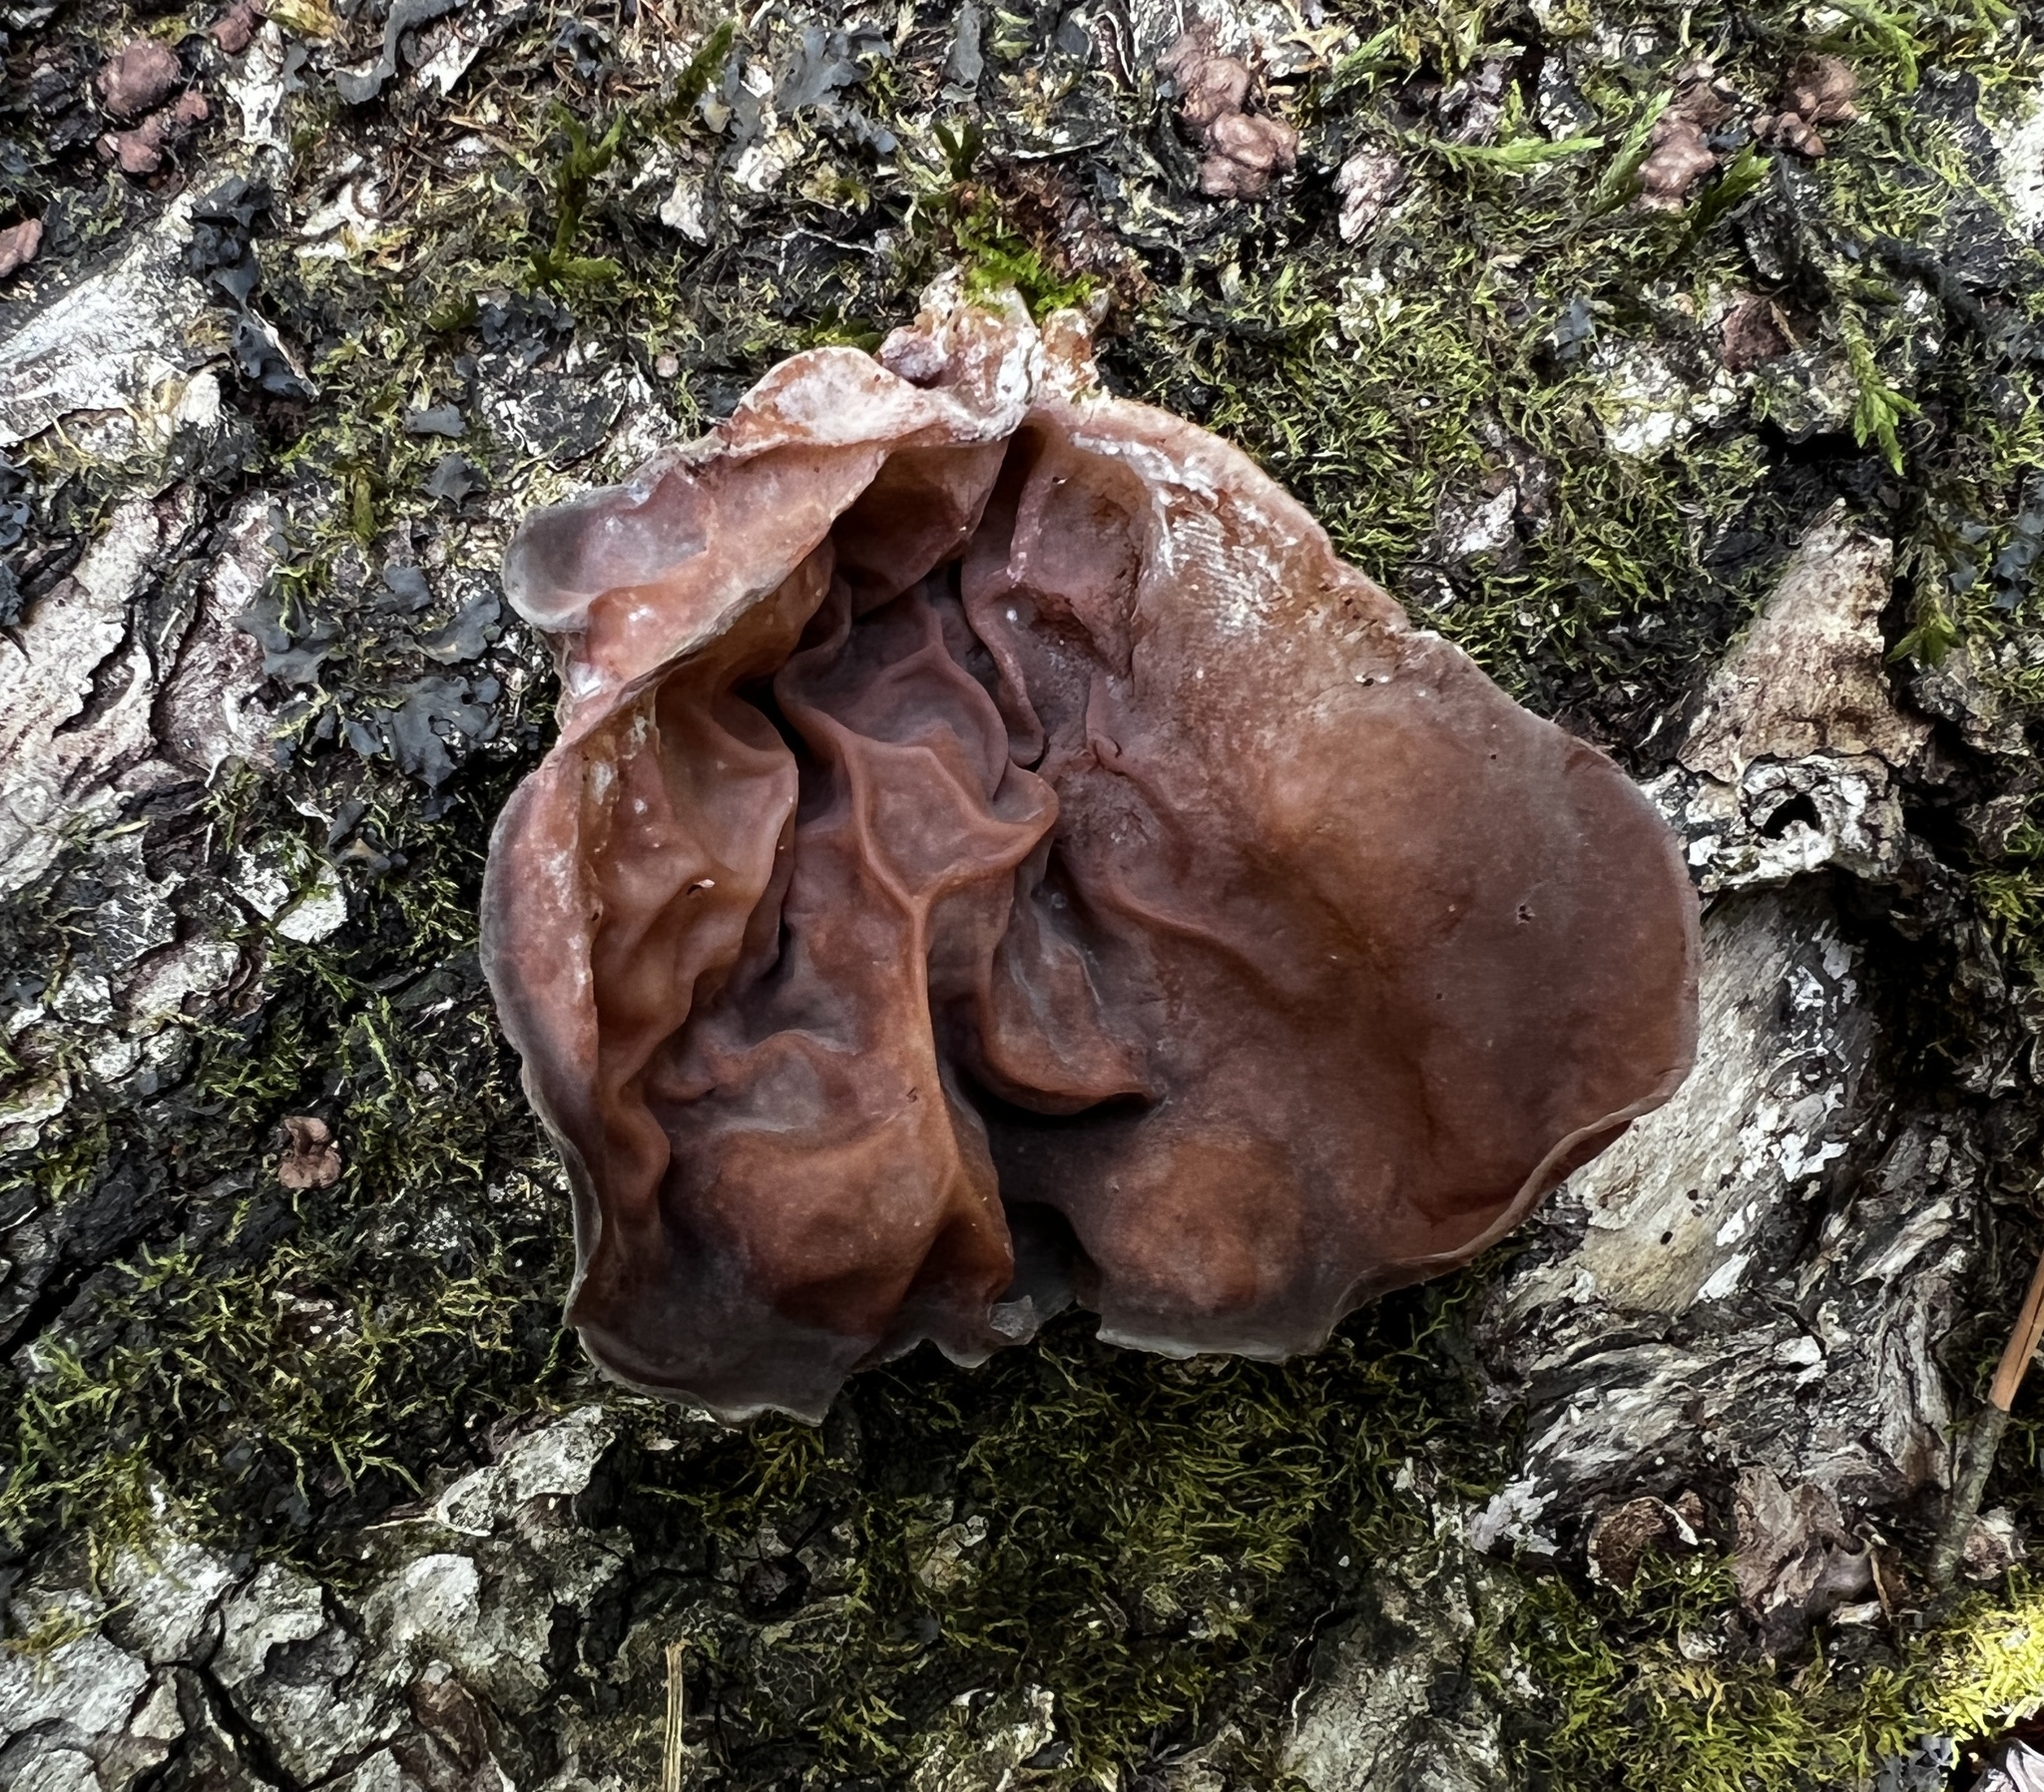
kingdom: Fungi
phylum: Basidiomycota
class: Agaricomycetes
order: Auriculariales
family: Auriculariaceae
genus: Auricularia
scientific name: Auricularia fuscosuccinea
